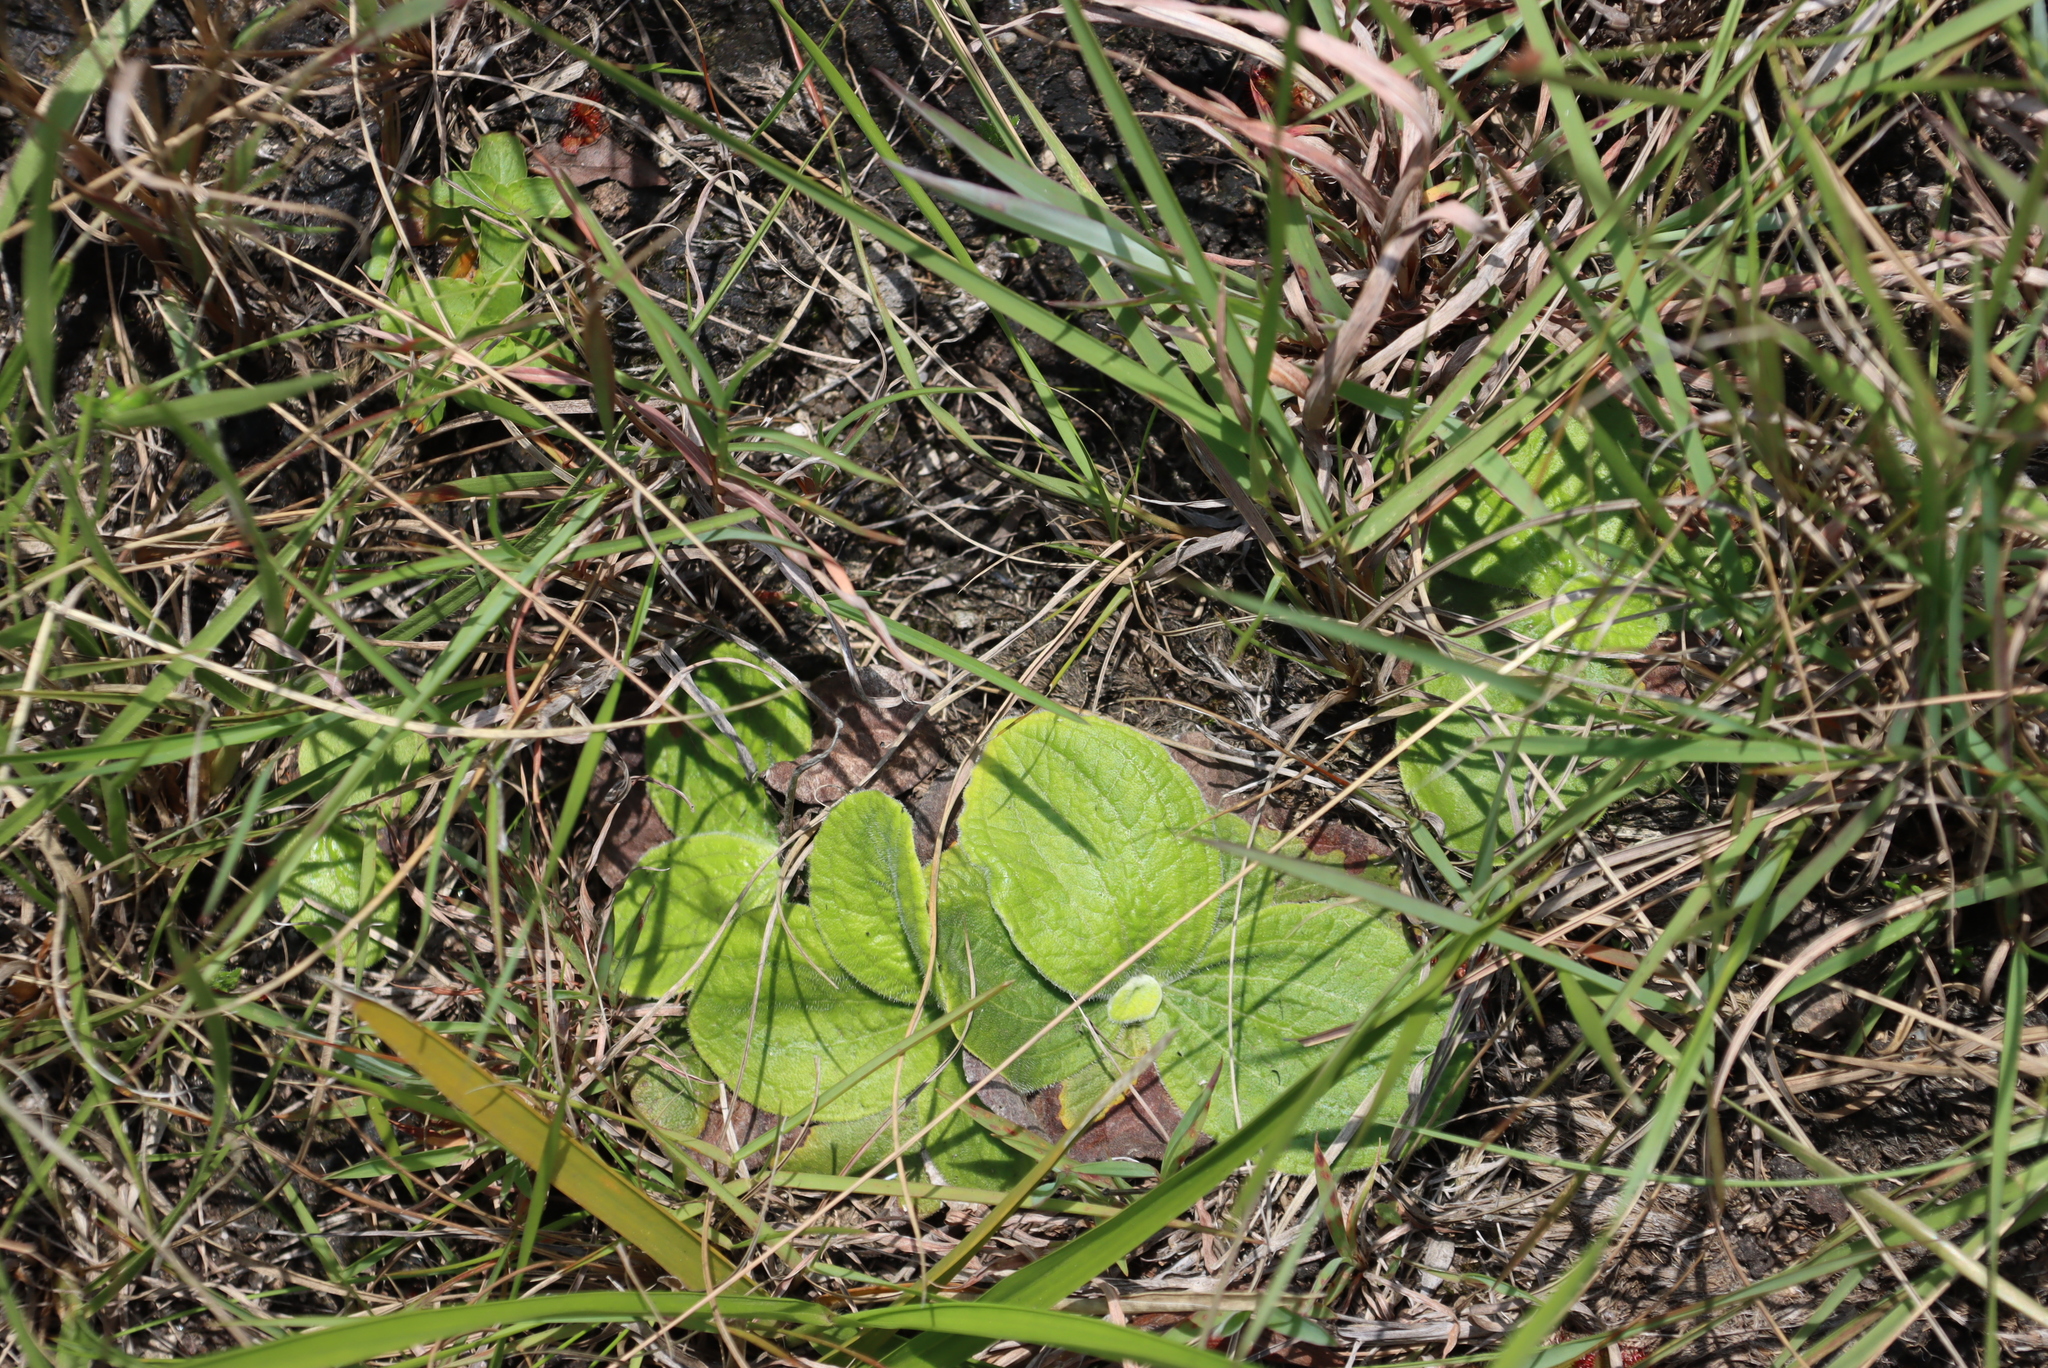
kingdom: Plantae
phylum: Tracheophyta
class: Magnoliopsida
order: Asterales
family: Asteraceae
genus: Helichrysum
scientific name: Helichrysum nudifolium
